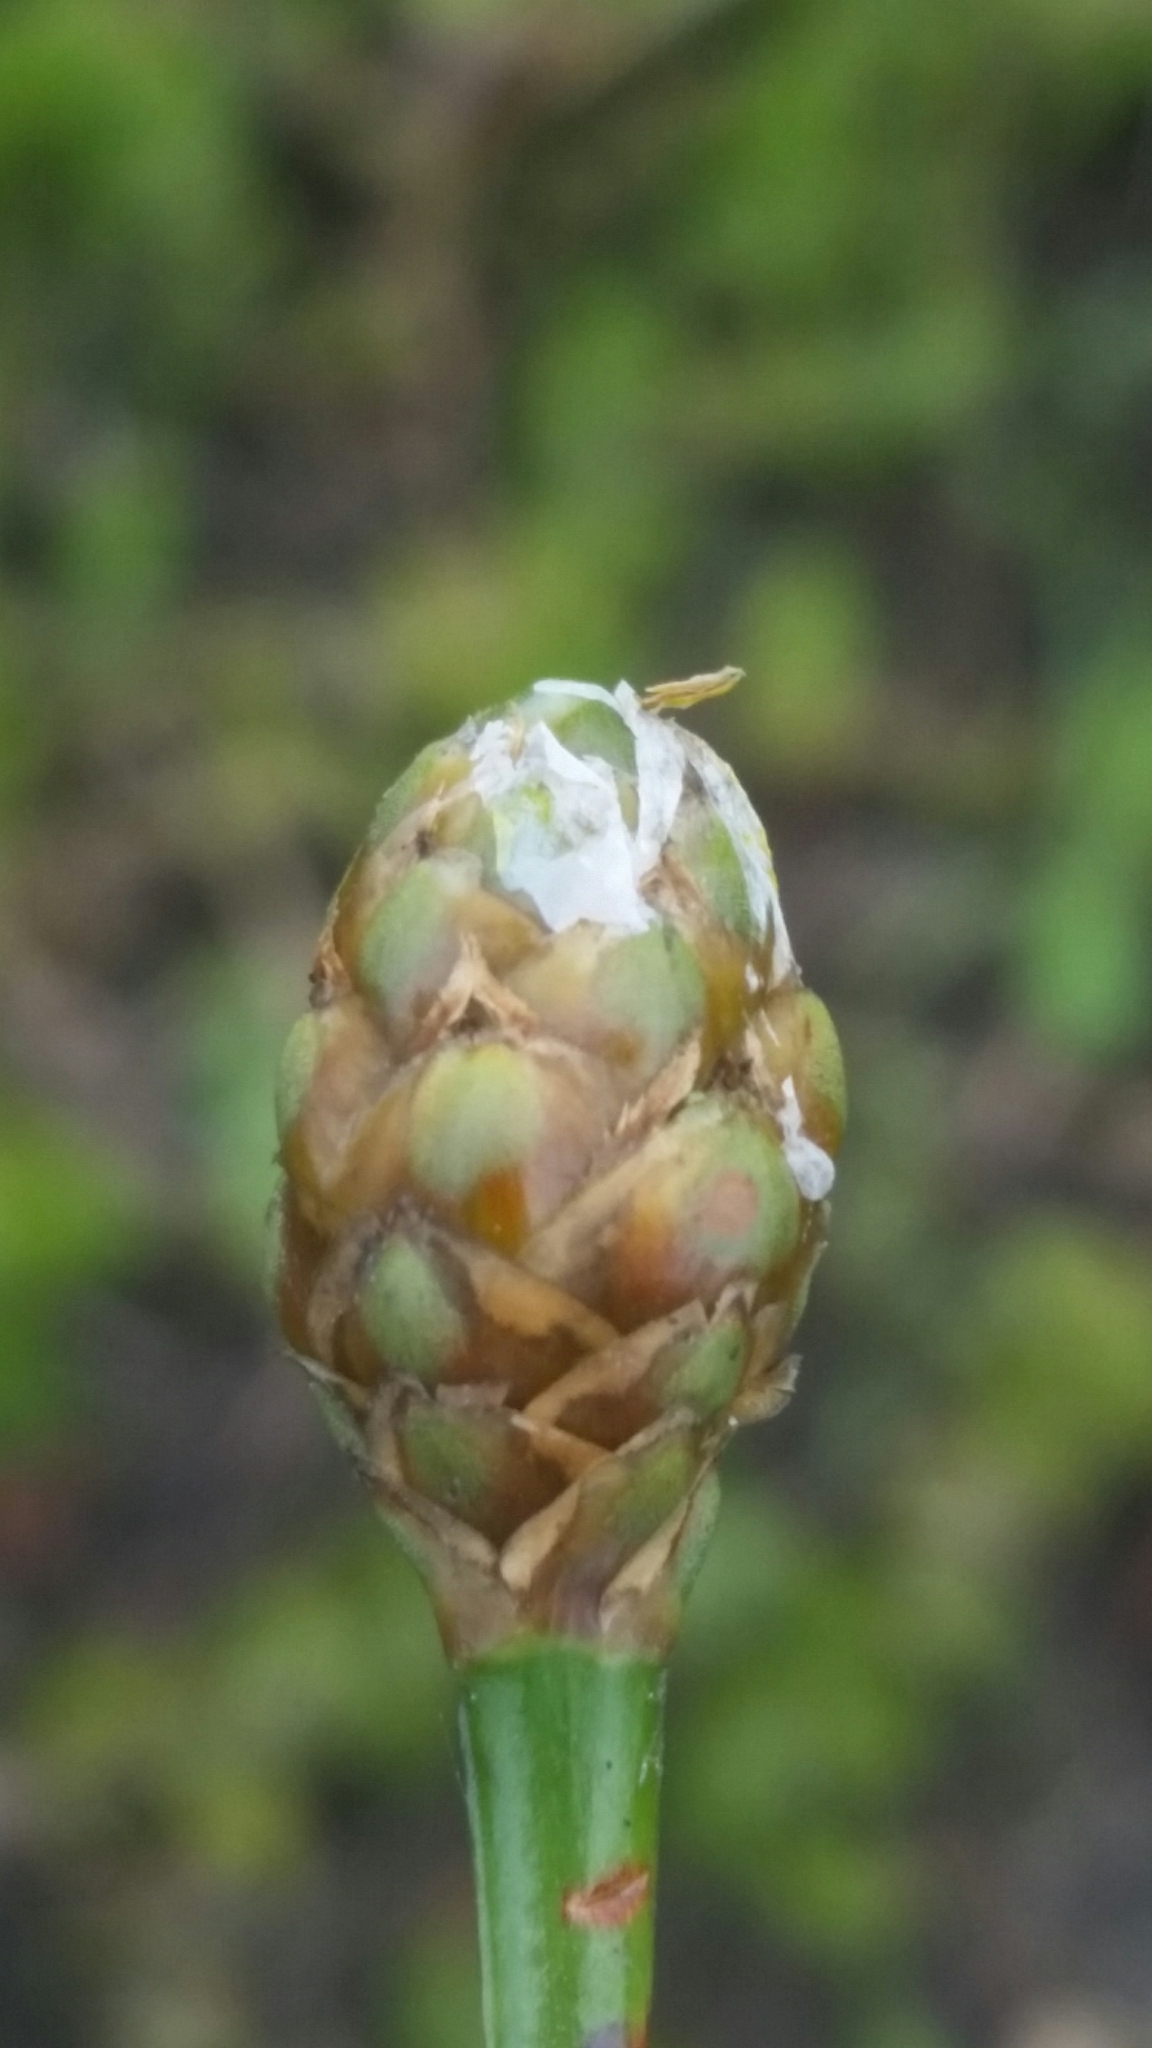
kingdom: Plantae
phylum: Tracheophyta
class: Liliopsida
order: Poales
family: Xyridaceae
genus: Xyris
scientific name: Xyris smalliana
